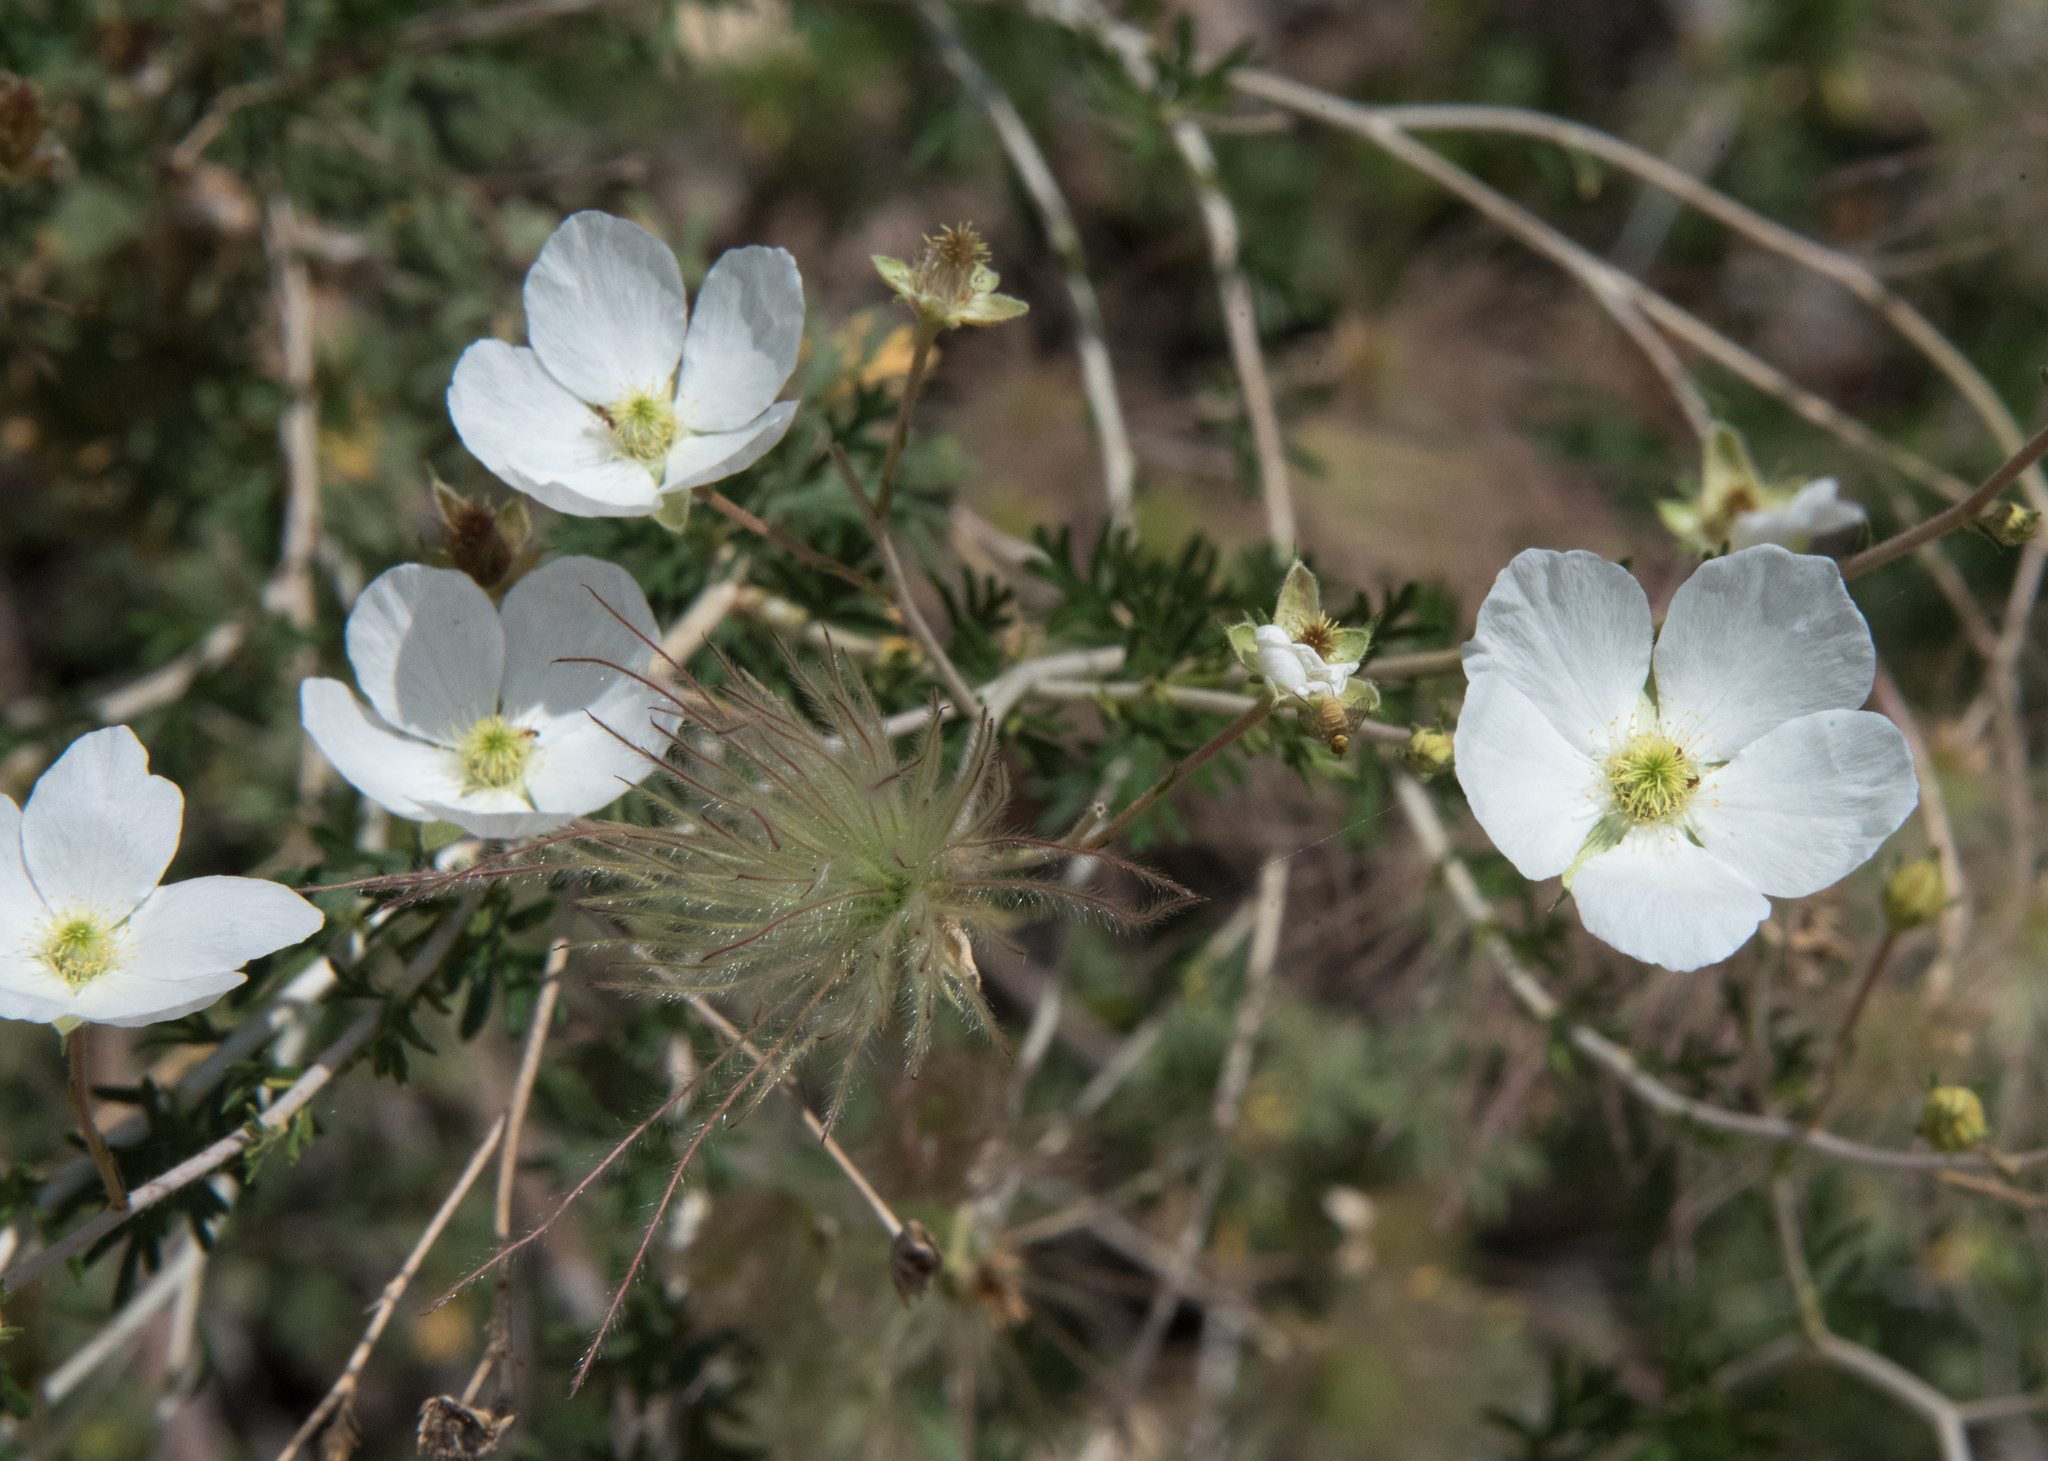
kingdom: Plantae
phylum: Tracheophyta
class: Magnoliopsida
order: Rosales
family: Rosaceae
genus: Fallugia
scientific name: Fallugia paradoxa
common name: Apache-plume
